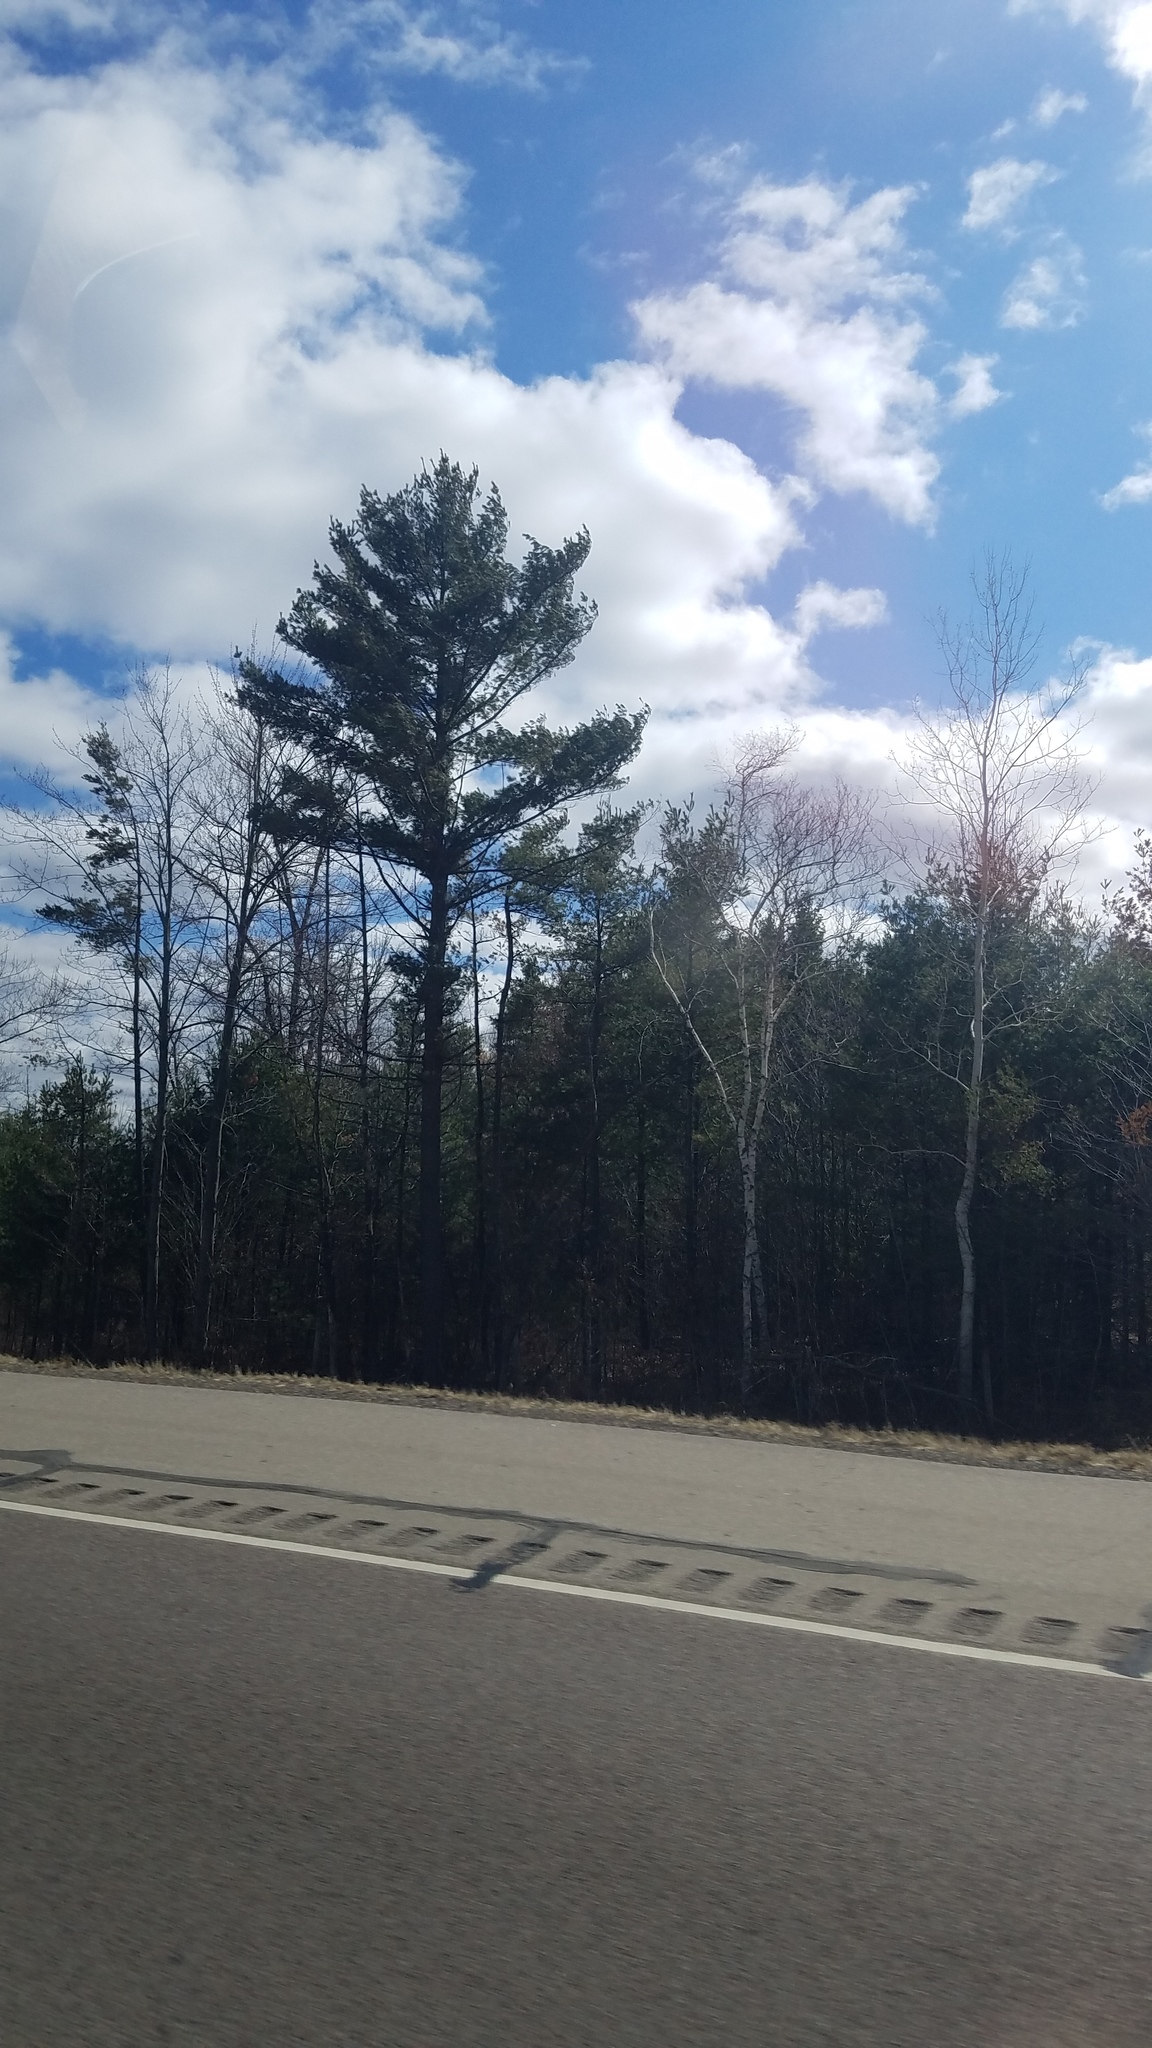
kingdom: Plantae
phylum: Tracheophyta
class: Pinopsida
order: Pinales
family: Pinaceae
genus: Pinus
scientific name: Pinus strobus
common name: Weymouth pine
